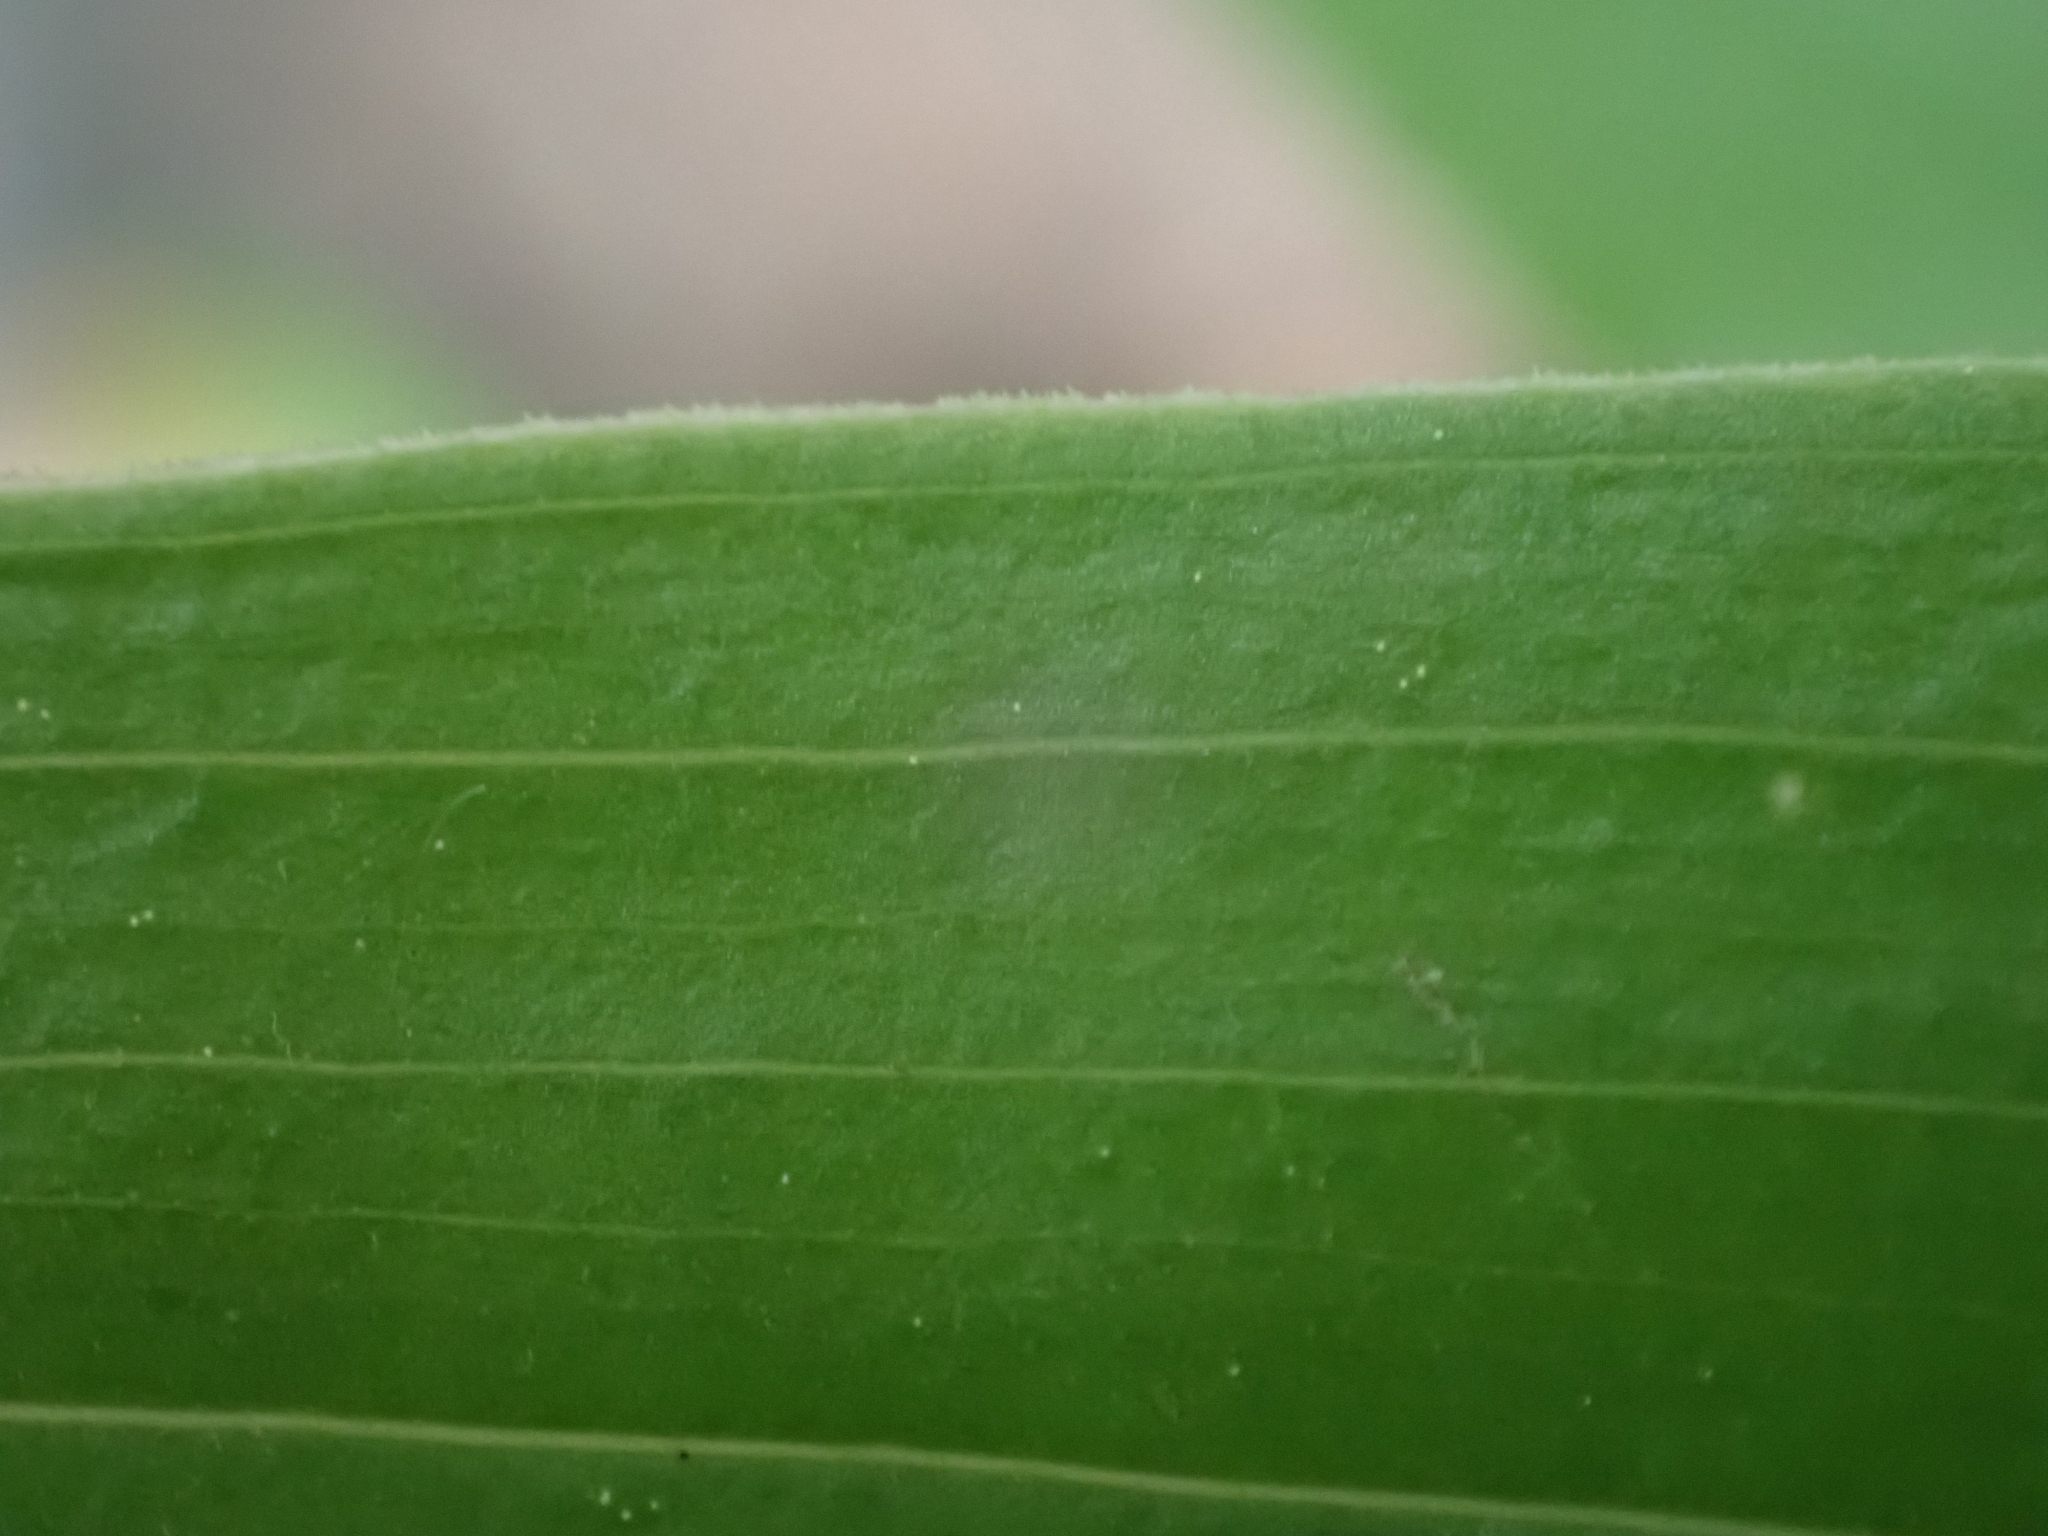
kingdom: Plantae
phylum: Tracheophyta
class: Liliopsida
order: Asparagales
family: Asparagaceae
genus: Maianthemum
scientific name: Maianthemum racemosum
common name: False spikenard
